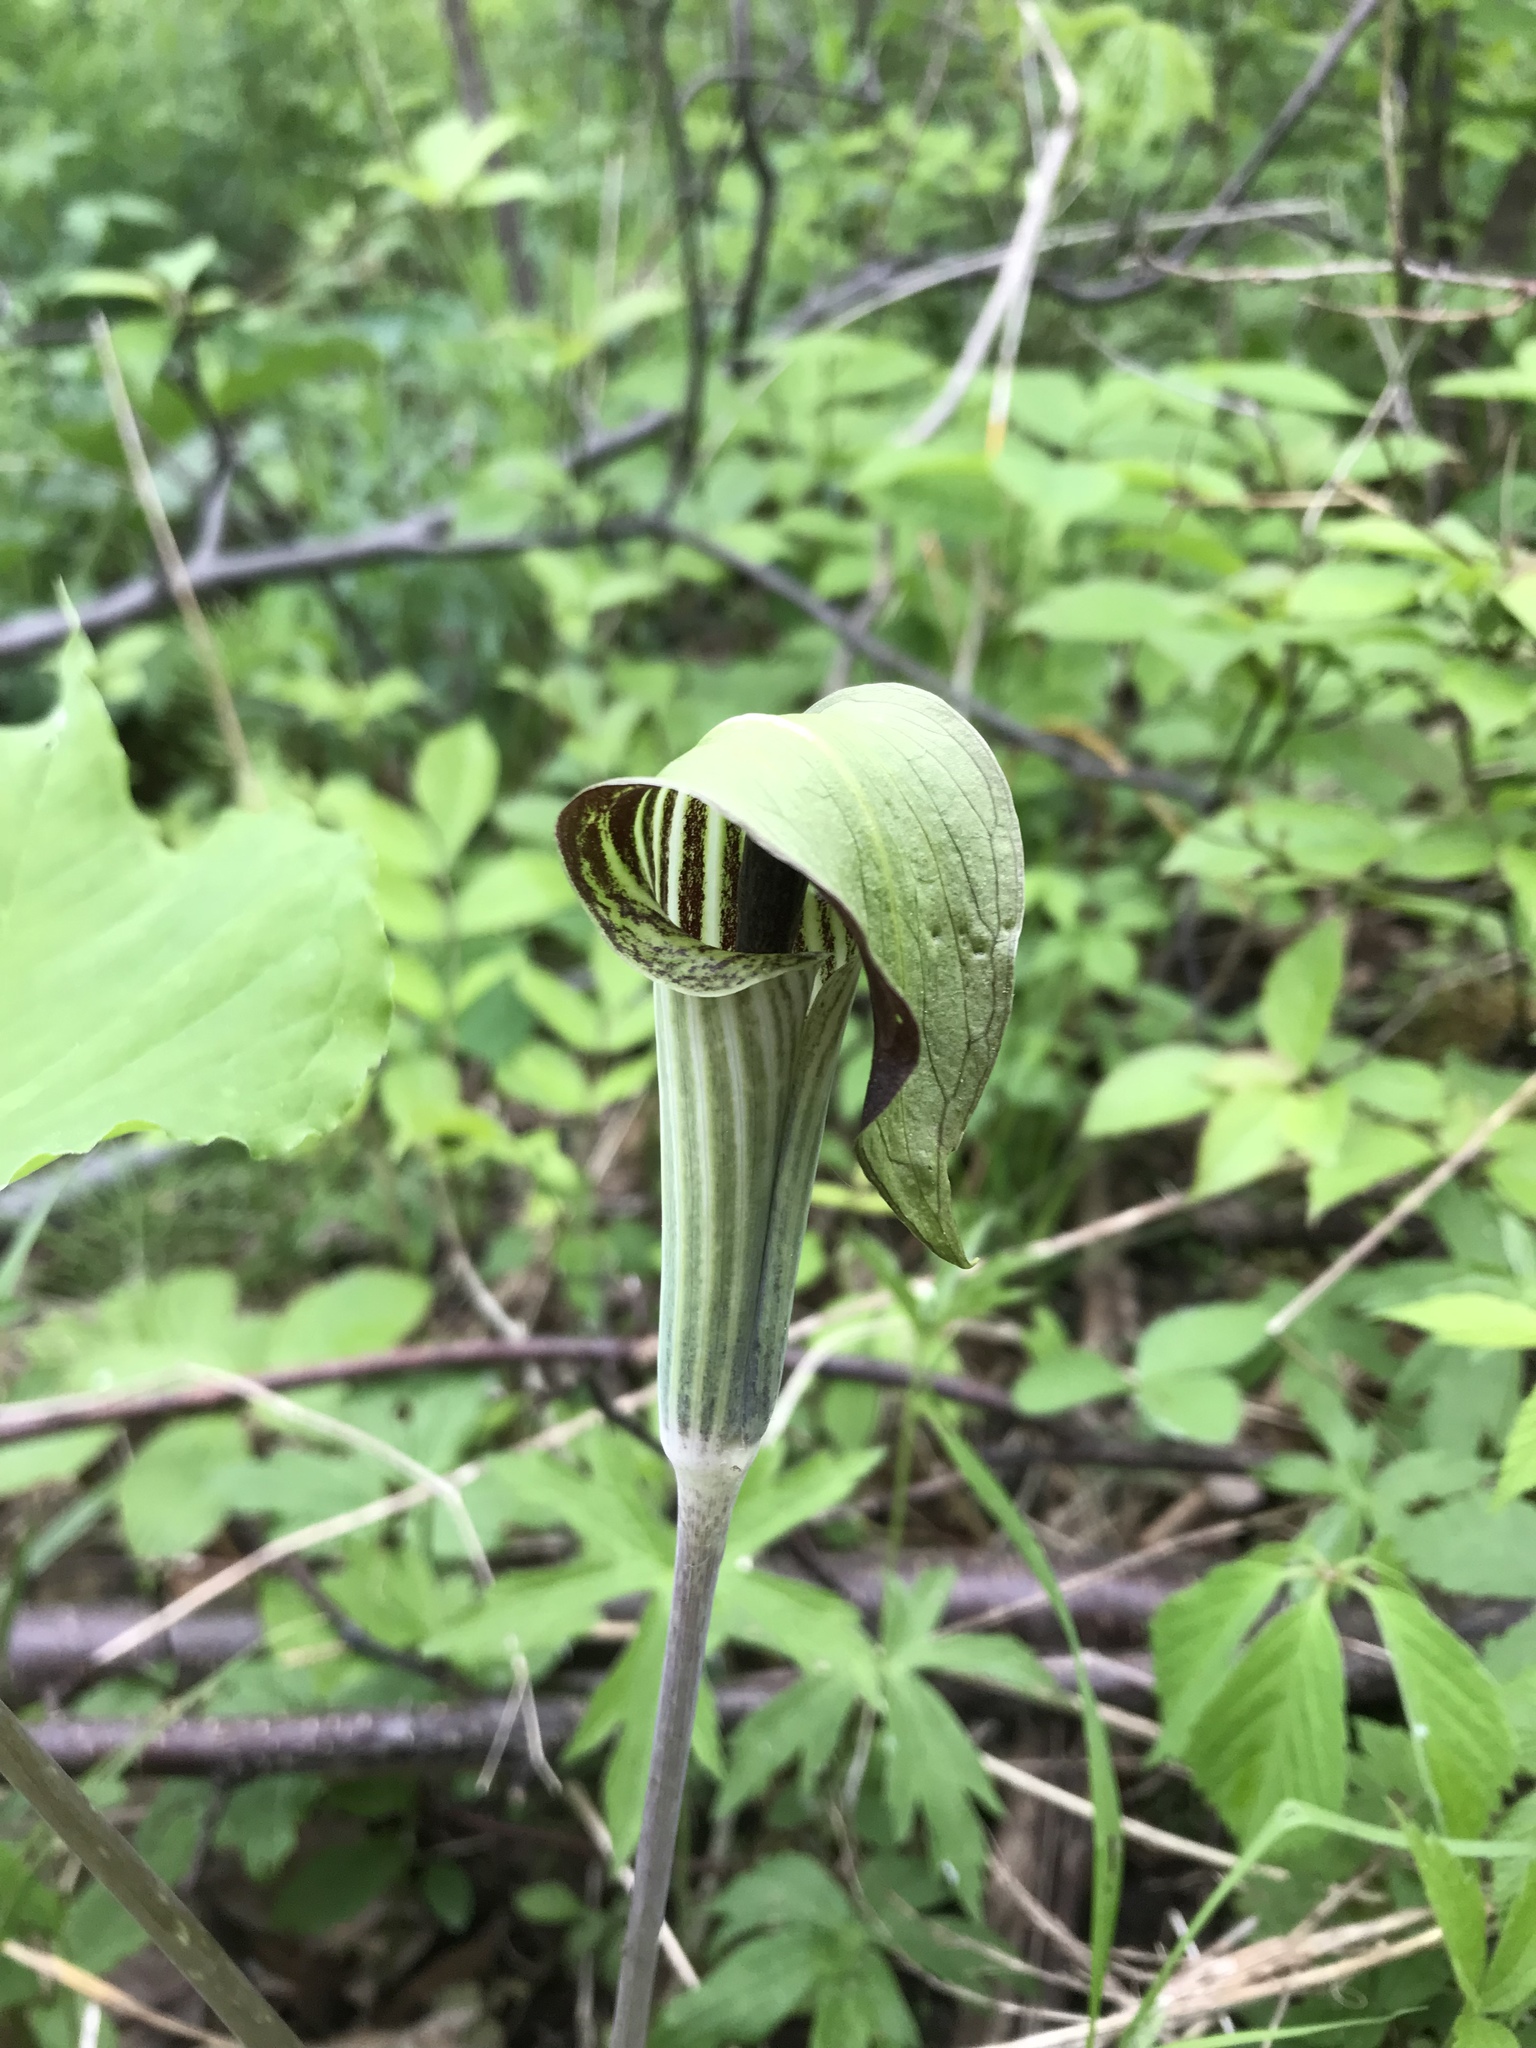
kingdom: Plantae
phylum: Tracheophyta
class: Liliopsida
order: Alismatales
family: Araceae
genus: Arisaema
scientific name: Arisaema triphyllum
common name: Jack-in-the-pulpit
